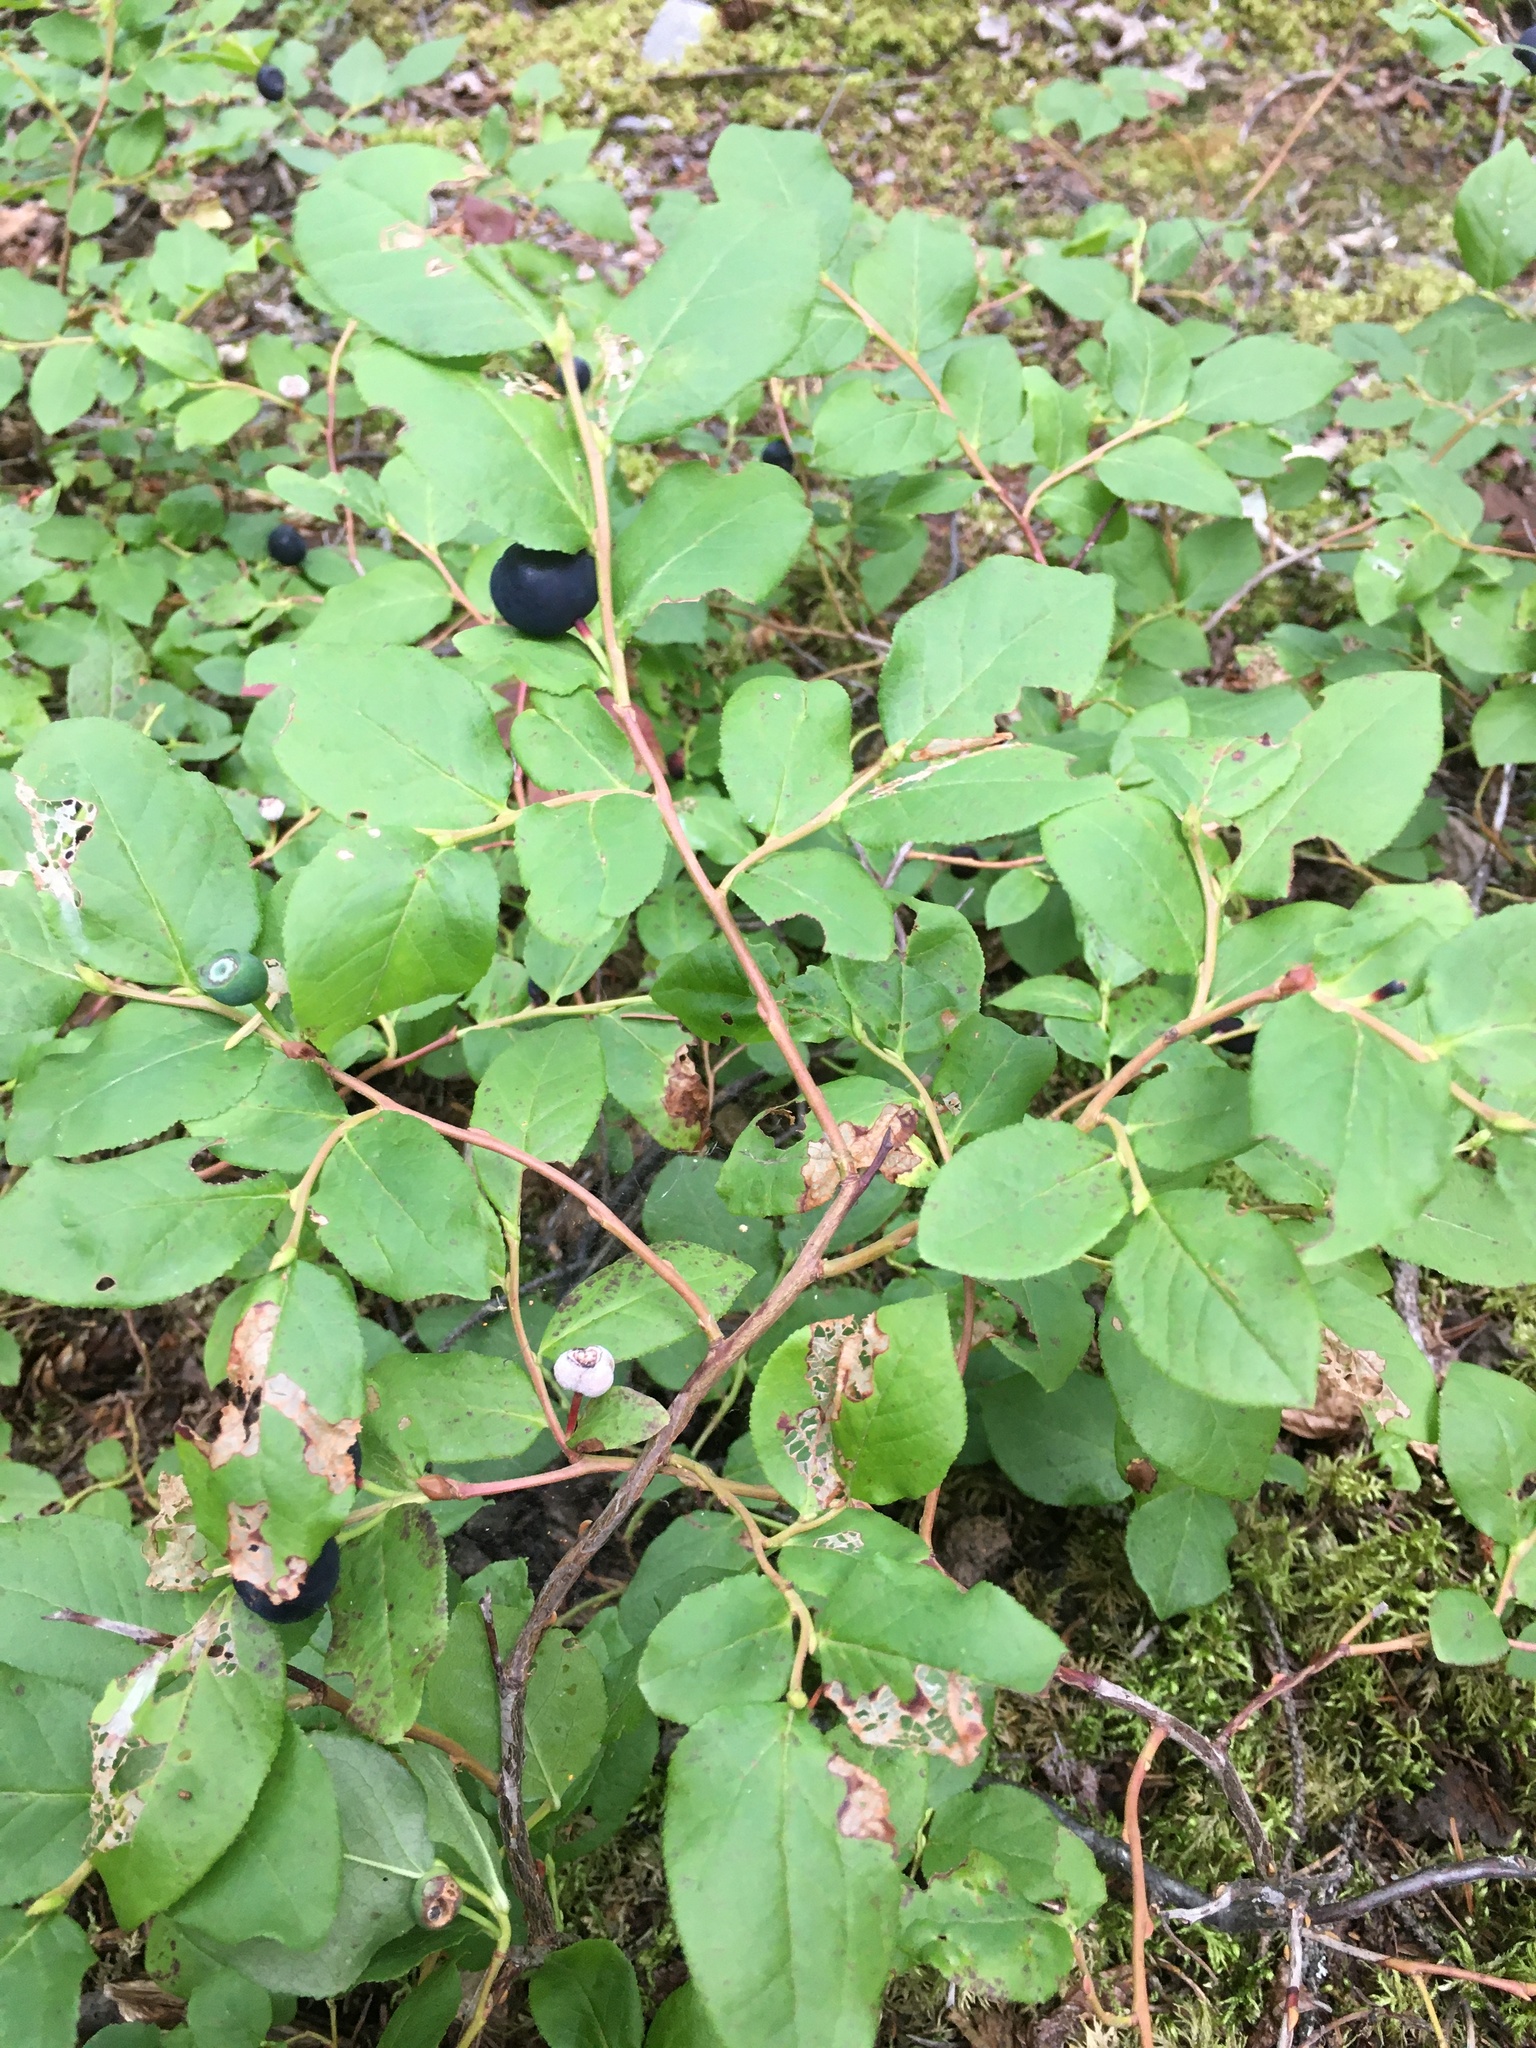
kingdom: Plantae
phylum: Tracheophyta
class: Magnoliopsida
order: Ericales
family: Ericaceae
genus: Vaccinium
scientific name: Vaccinium membranaceum
